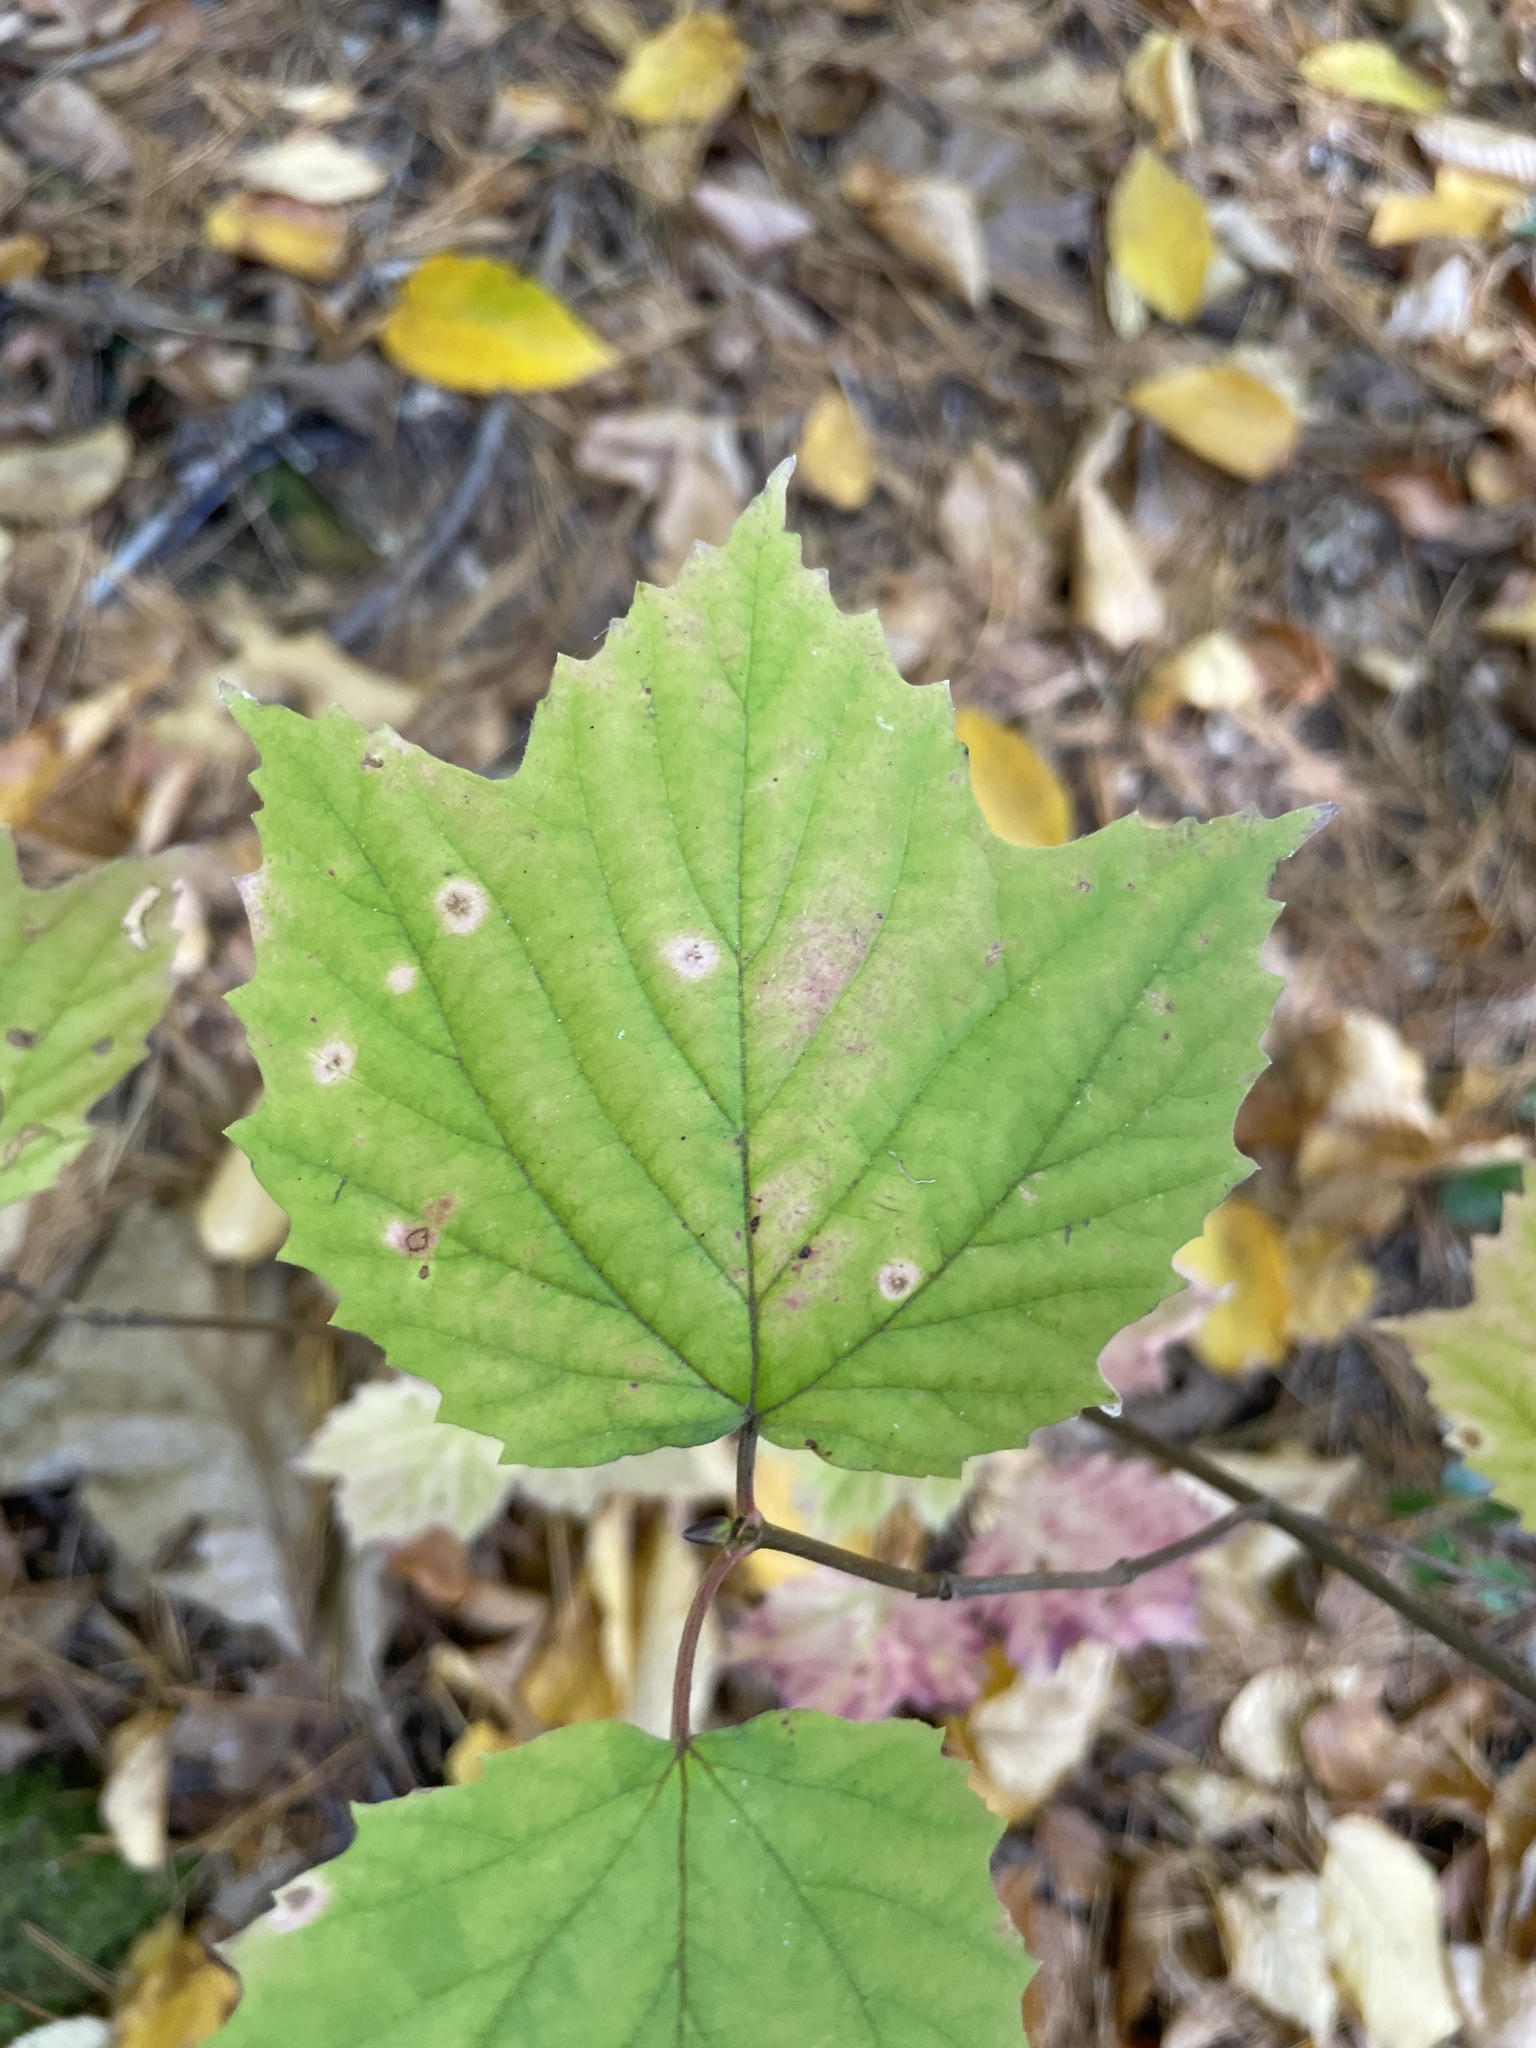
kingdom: Plantae
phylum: Tracheophyta
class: Magnoliopsida
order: Dipsacales
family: Viburnaceae
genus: Viburnum
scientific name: Viburnum acerifolium
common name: Dockmackie
